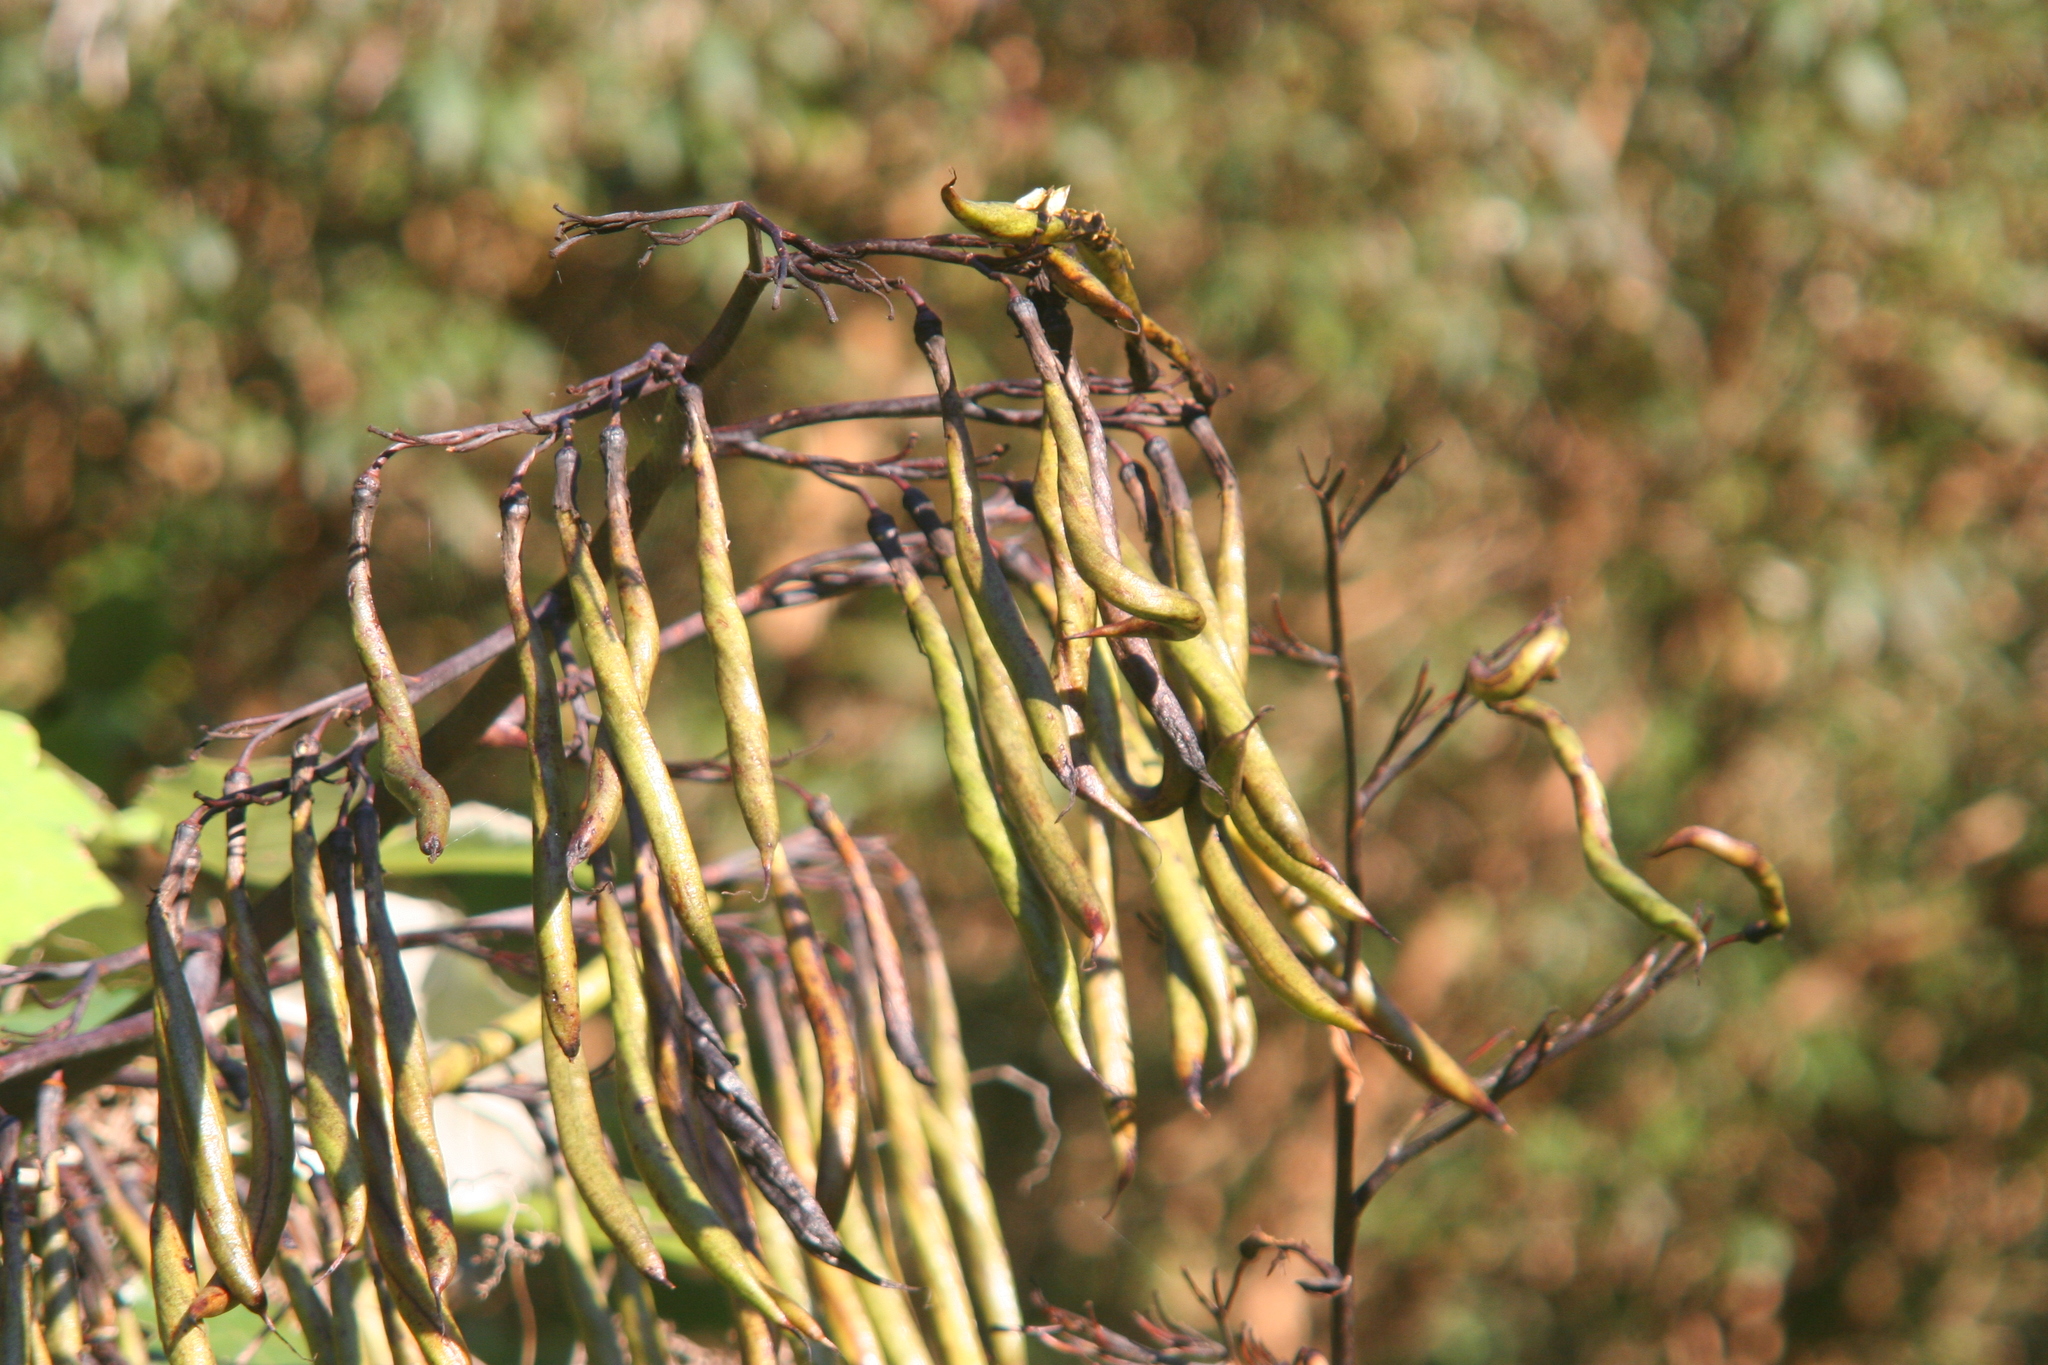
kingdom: Plantae
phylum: Tracheophyta
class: Liliopsida
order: Asparagales
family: Asphodelaceae
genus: Phormium
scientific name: Phormium colensoi
